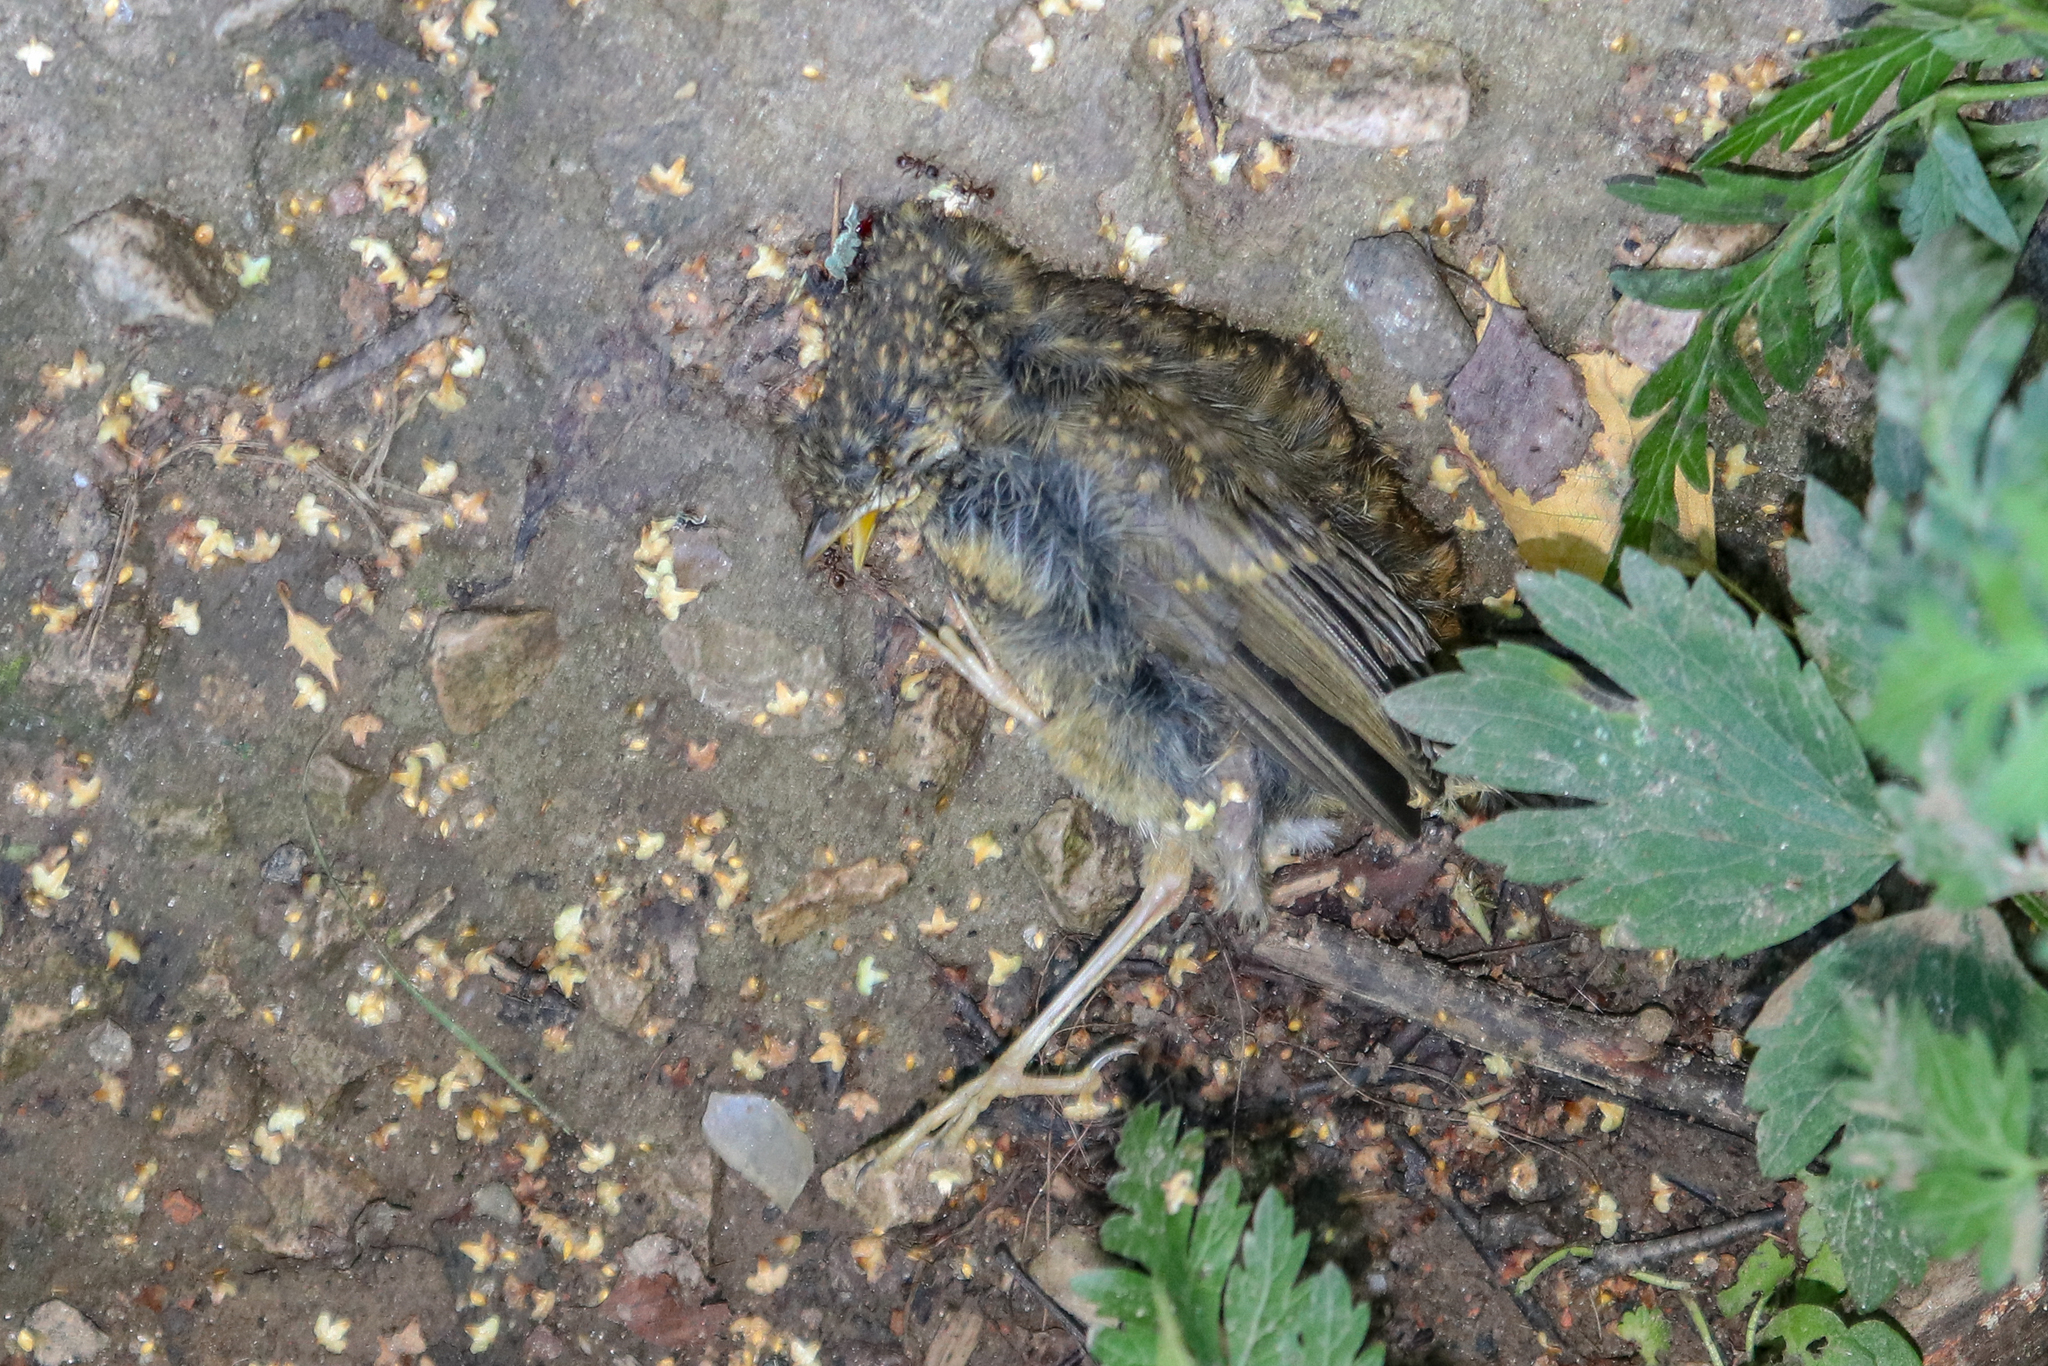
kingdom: Animalia
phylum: Chordata
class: Aves
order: Passeriformes
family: Muscicapidae
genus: Erithacus
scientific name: Erithacus rubecula
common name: European robin
